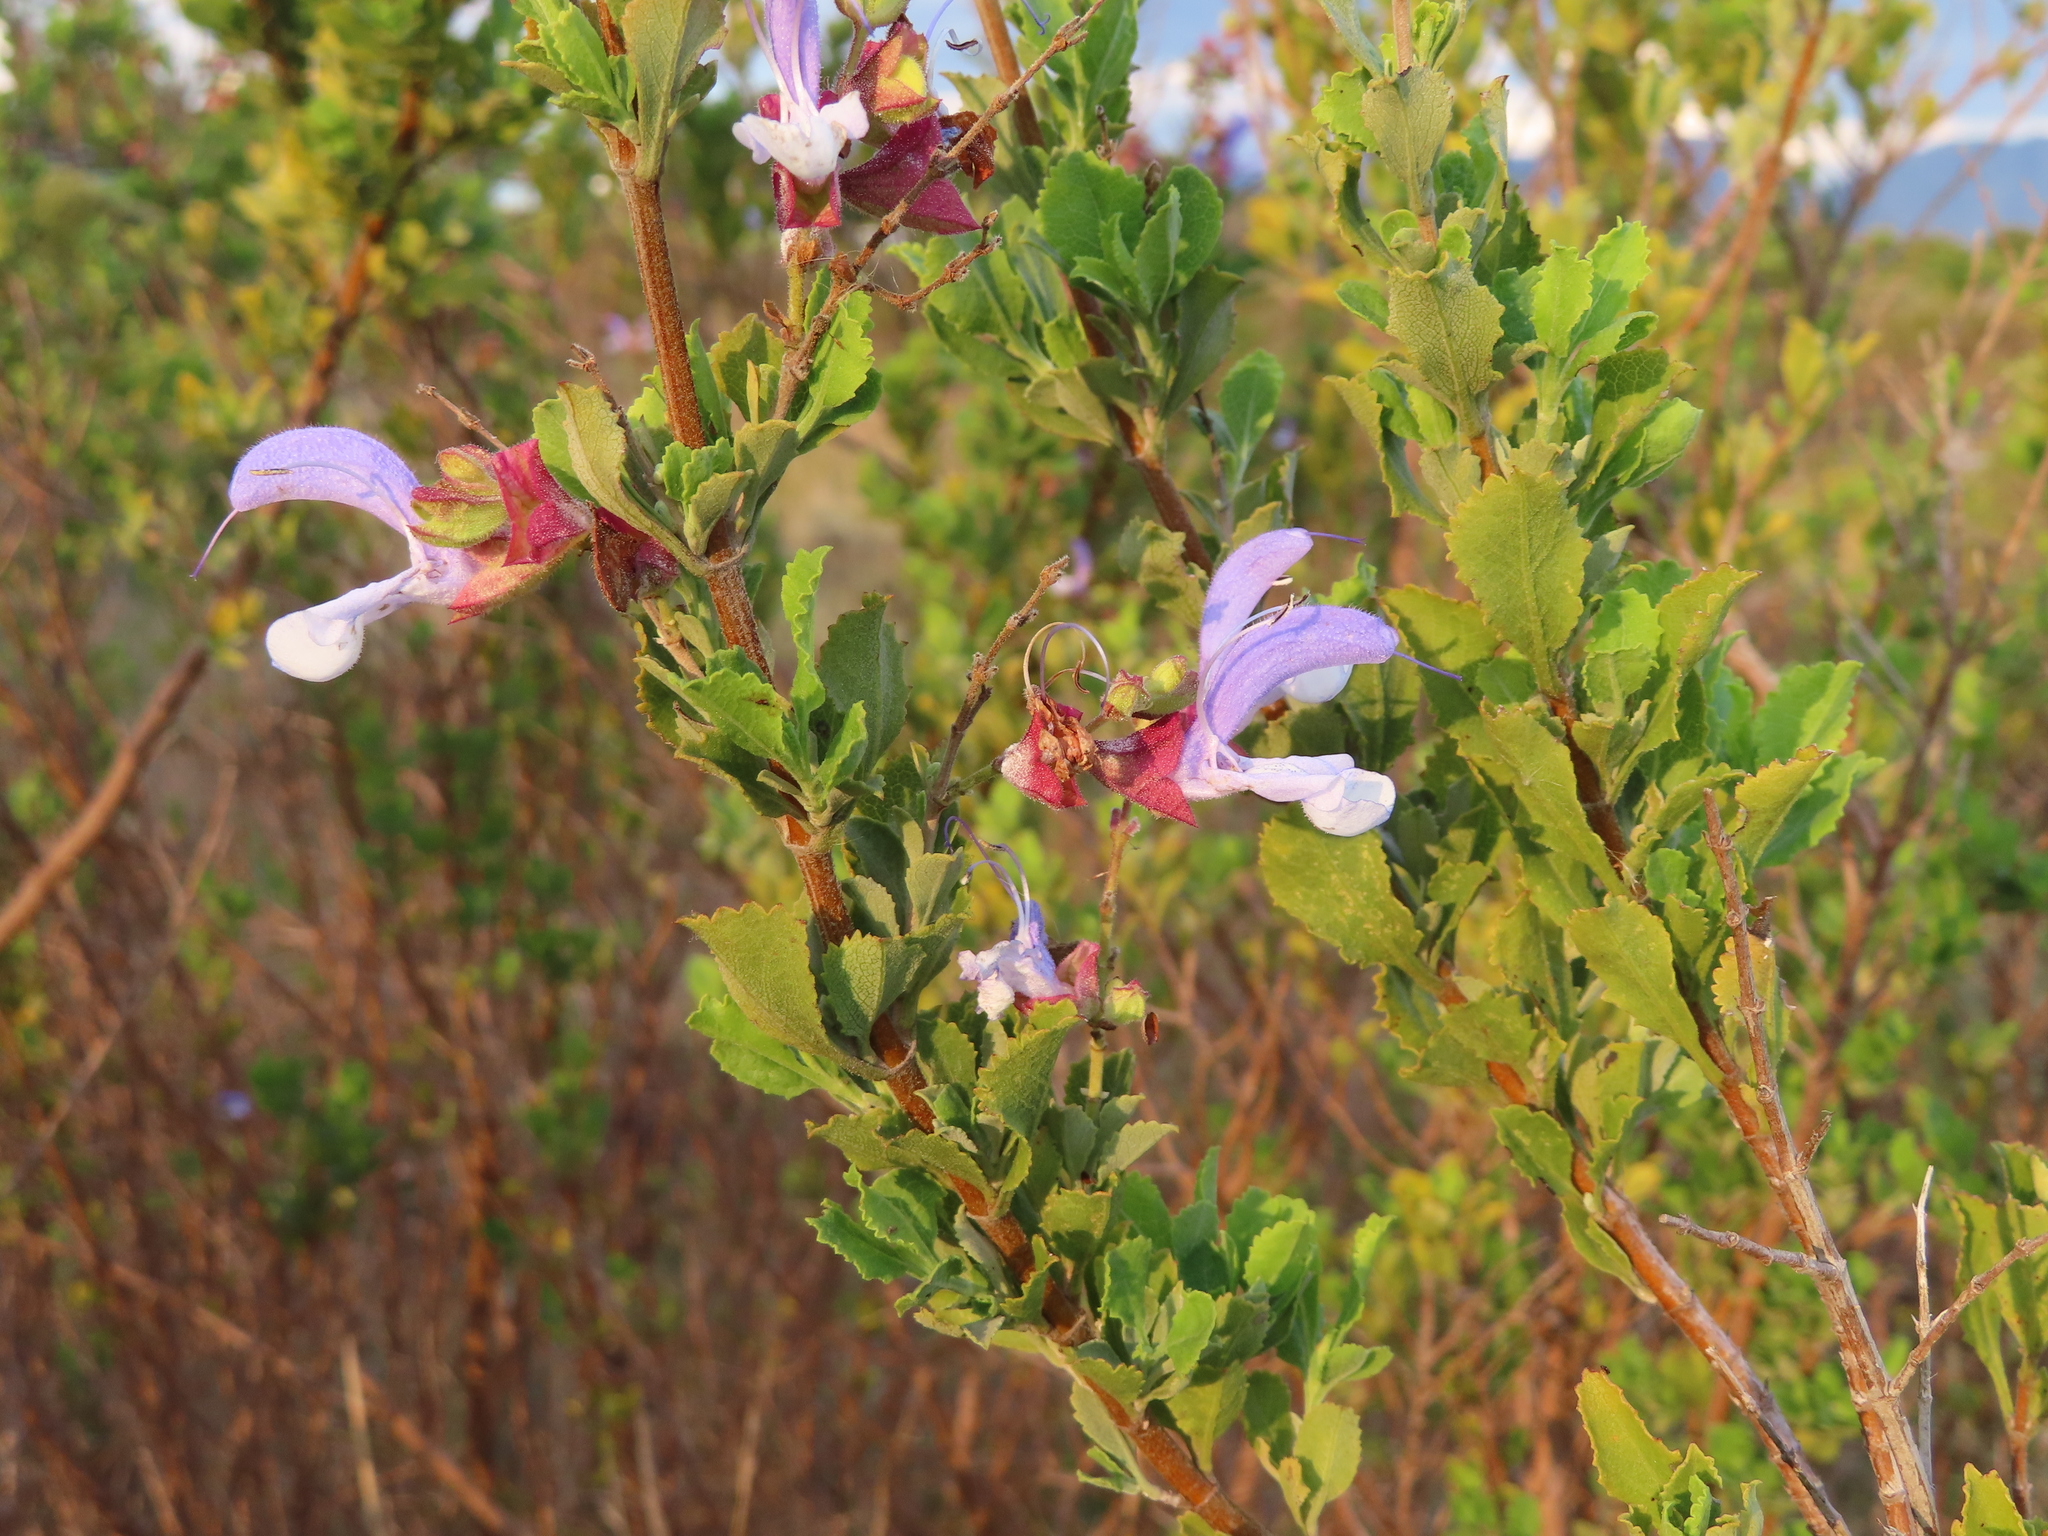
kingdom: Plantae
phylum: Tracheophyta
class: Magnoliopsida
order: Lamiales
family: Lamiaceae
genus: Salvia
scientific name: Salvia chamelaeagnea
